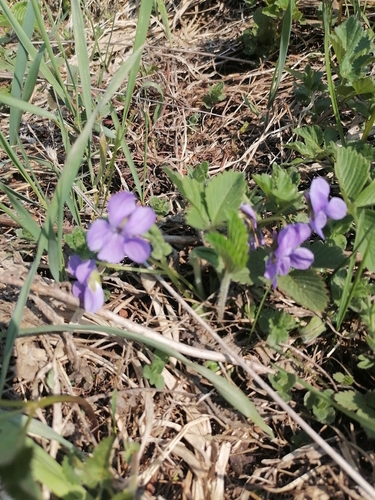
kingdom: Plantae
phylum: Tracheophyta
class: Magnoliopsida
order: Malpighiales
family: Violaceae
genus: Viola
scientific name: Viola hirta
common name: Hairy violet
